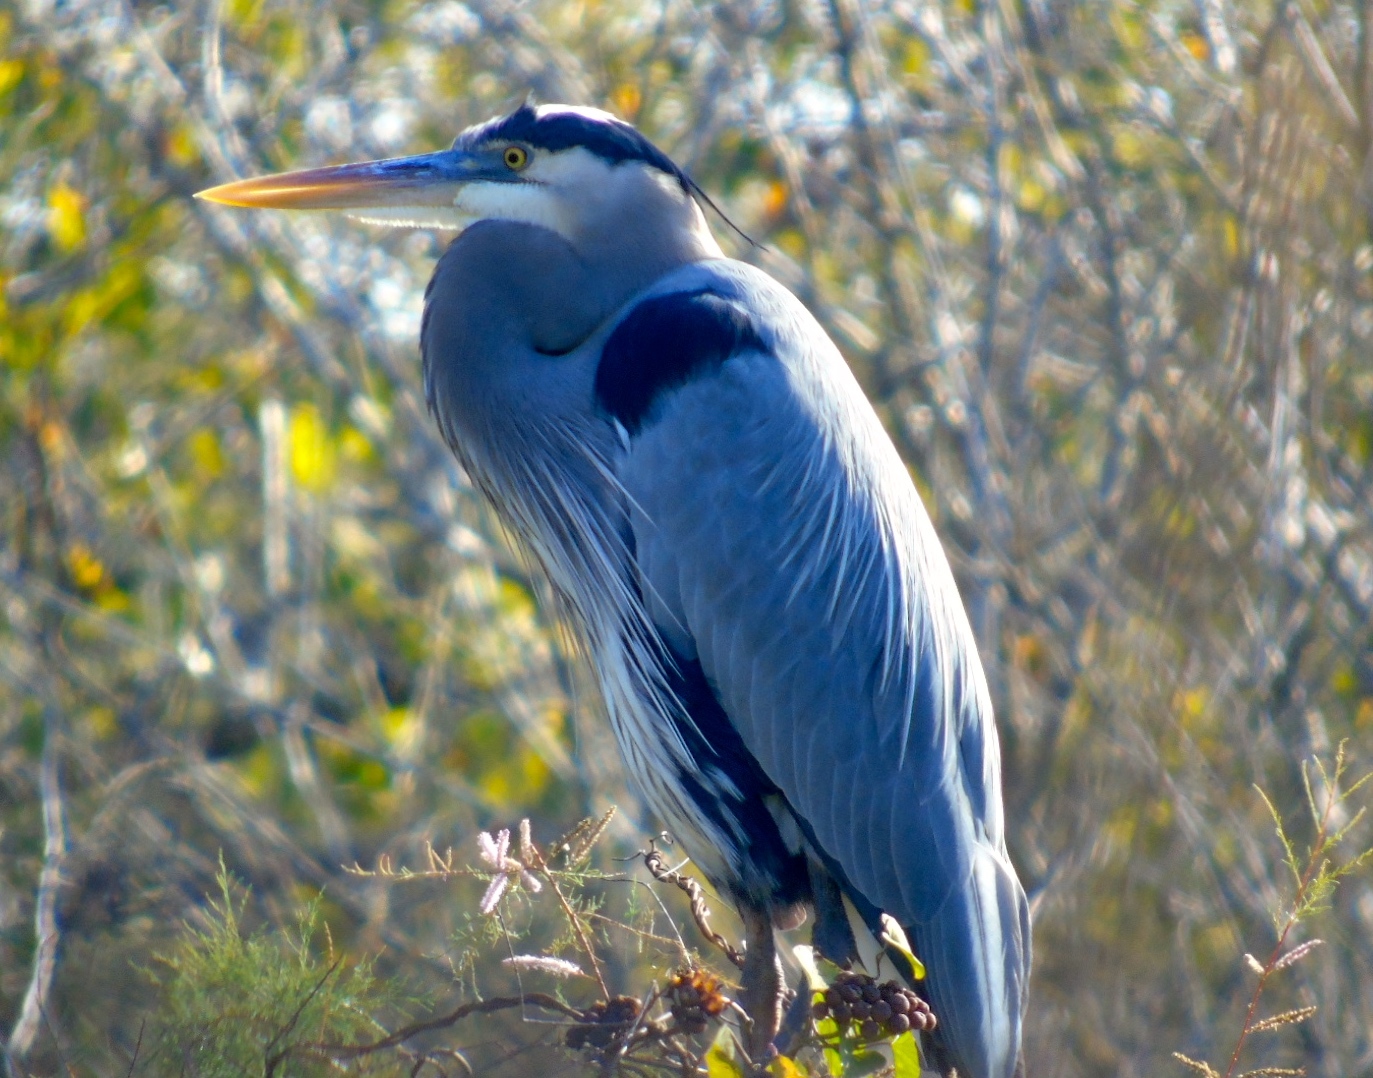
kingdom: Animalia
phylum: Chordata
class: Aves
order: Pelecaniformes
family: Ardeidae
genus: Ardea
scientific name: Ardea herodias
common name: Great blue heron
